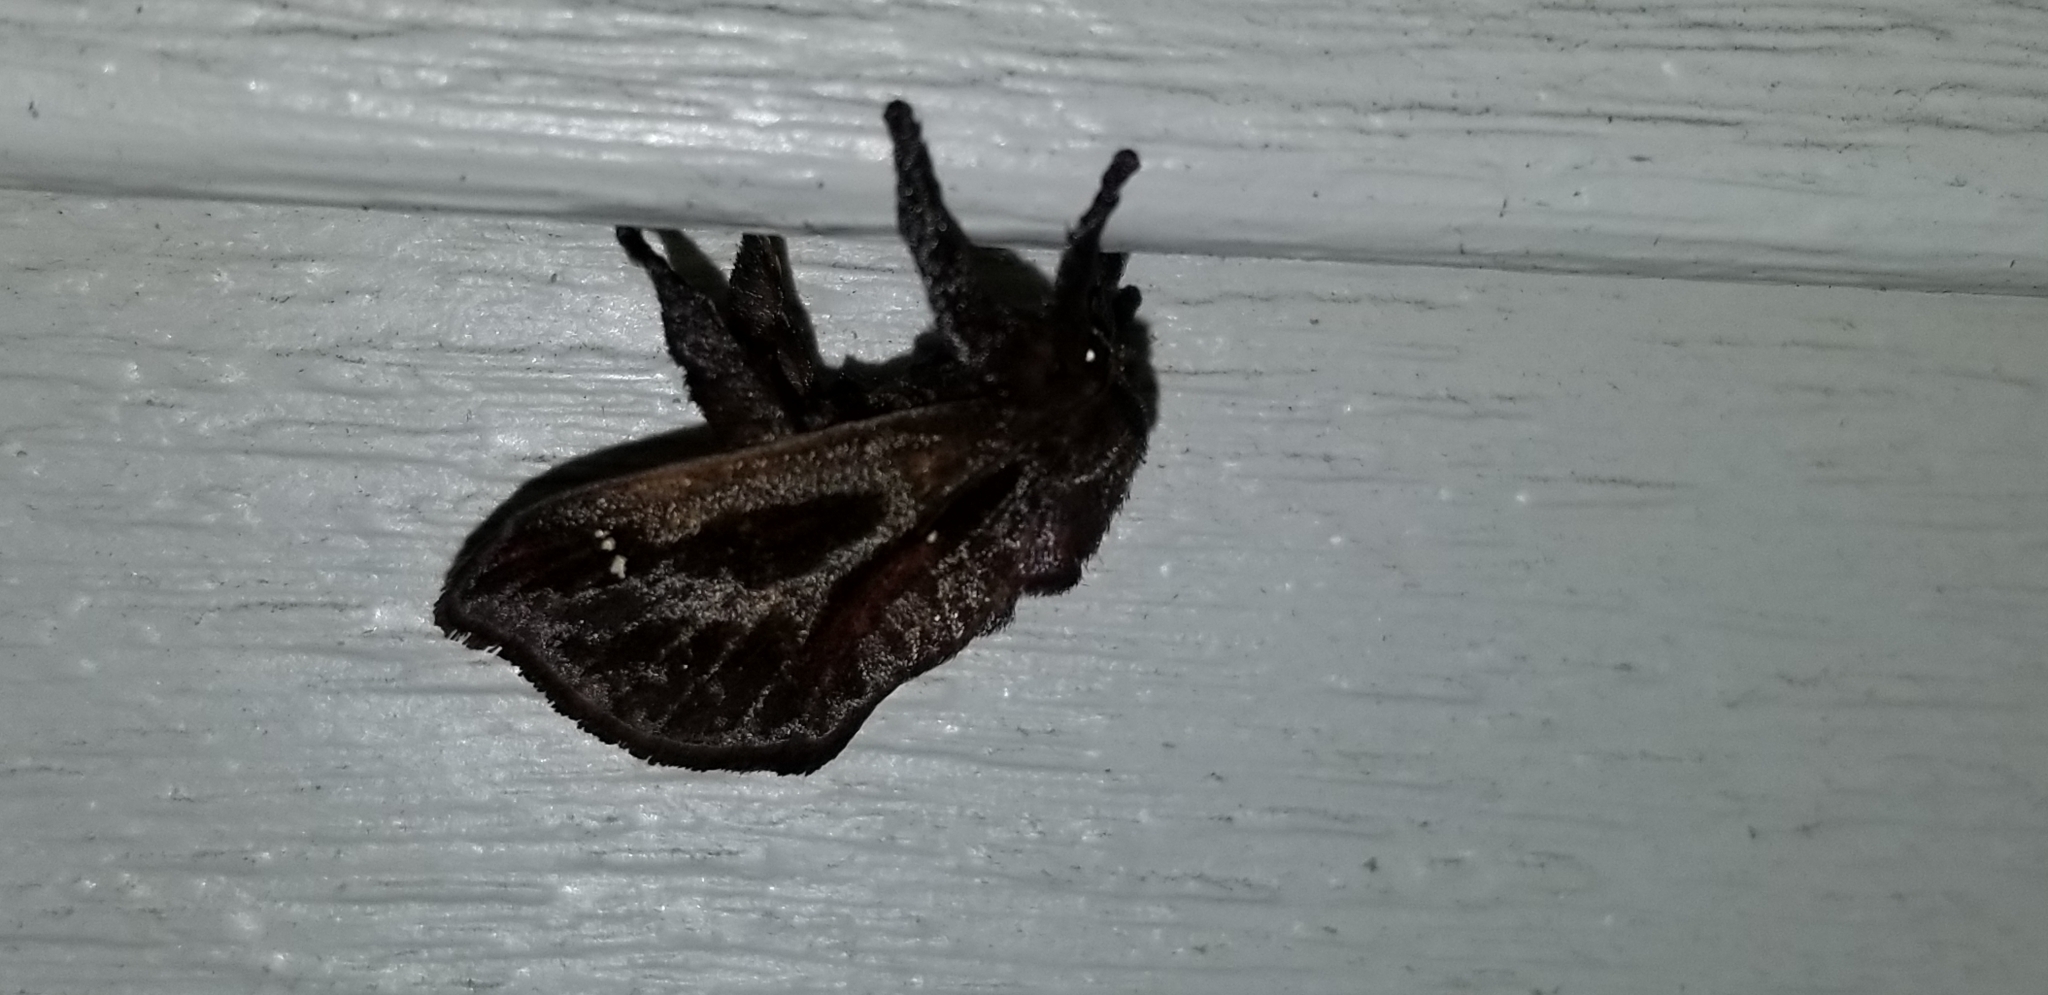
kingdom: Animalia
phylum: Arthropoda
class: Insecta
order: Lepidoptera
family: Limacodidae
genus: Acharia
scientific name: Acharia stimulea
